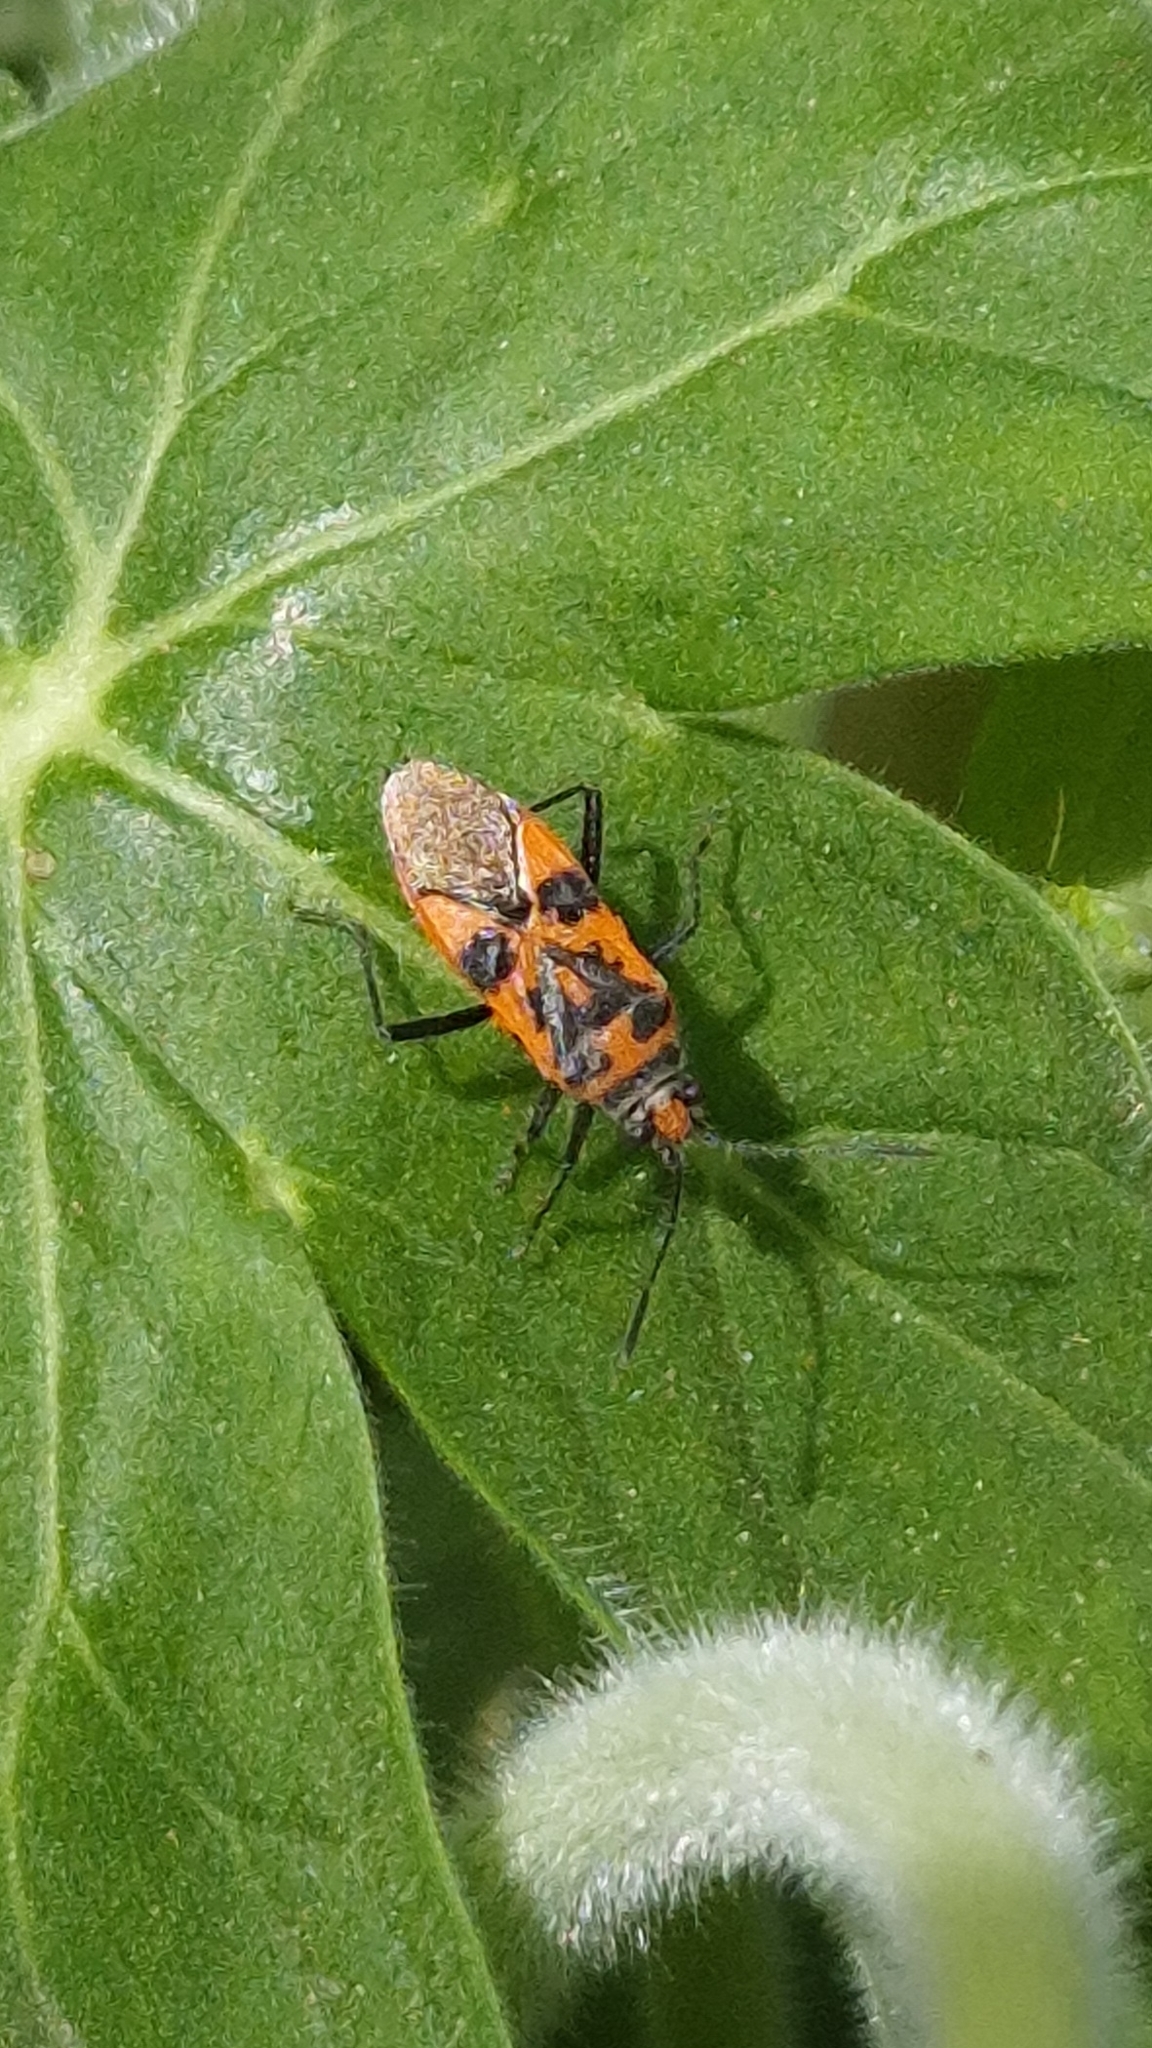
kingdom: Animalia
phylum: Arthropoda
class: Insecta
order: Hemiptera
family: Rhopalidae
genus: Corizus
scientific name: Corizus hyoscyami
